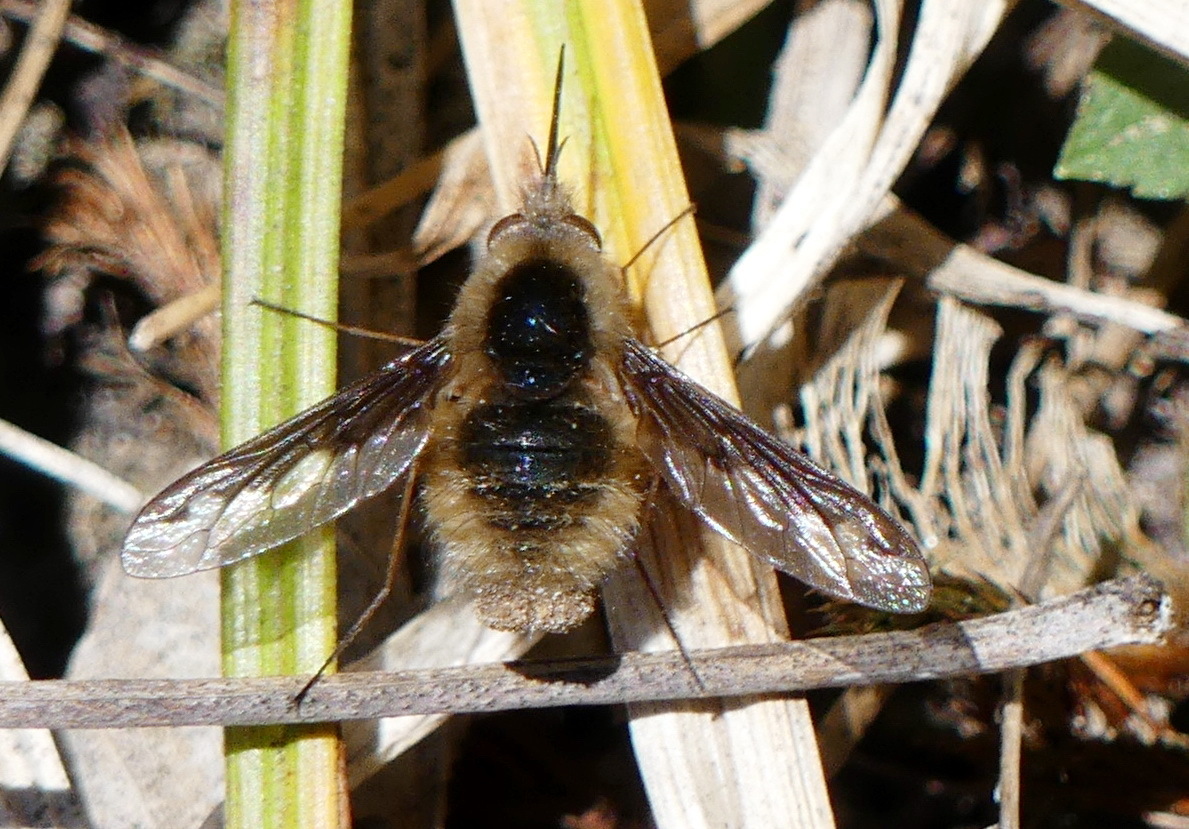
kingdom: Animalia
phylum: Arthropoda
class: Insecta
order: Diptera
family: Bombyliidae
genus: Bombylius
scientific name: Bombylius major
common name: Bee fly
